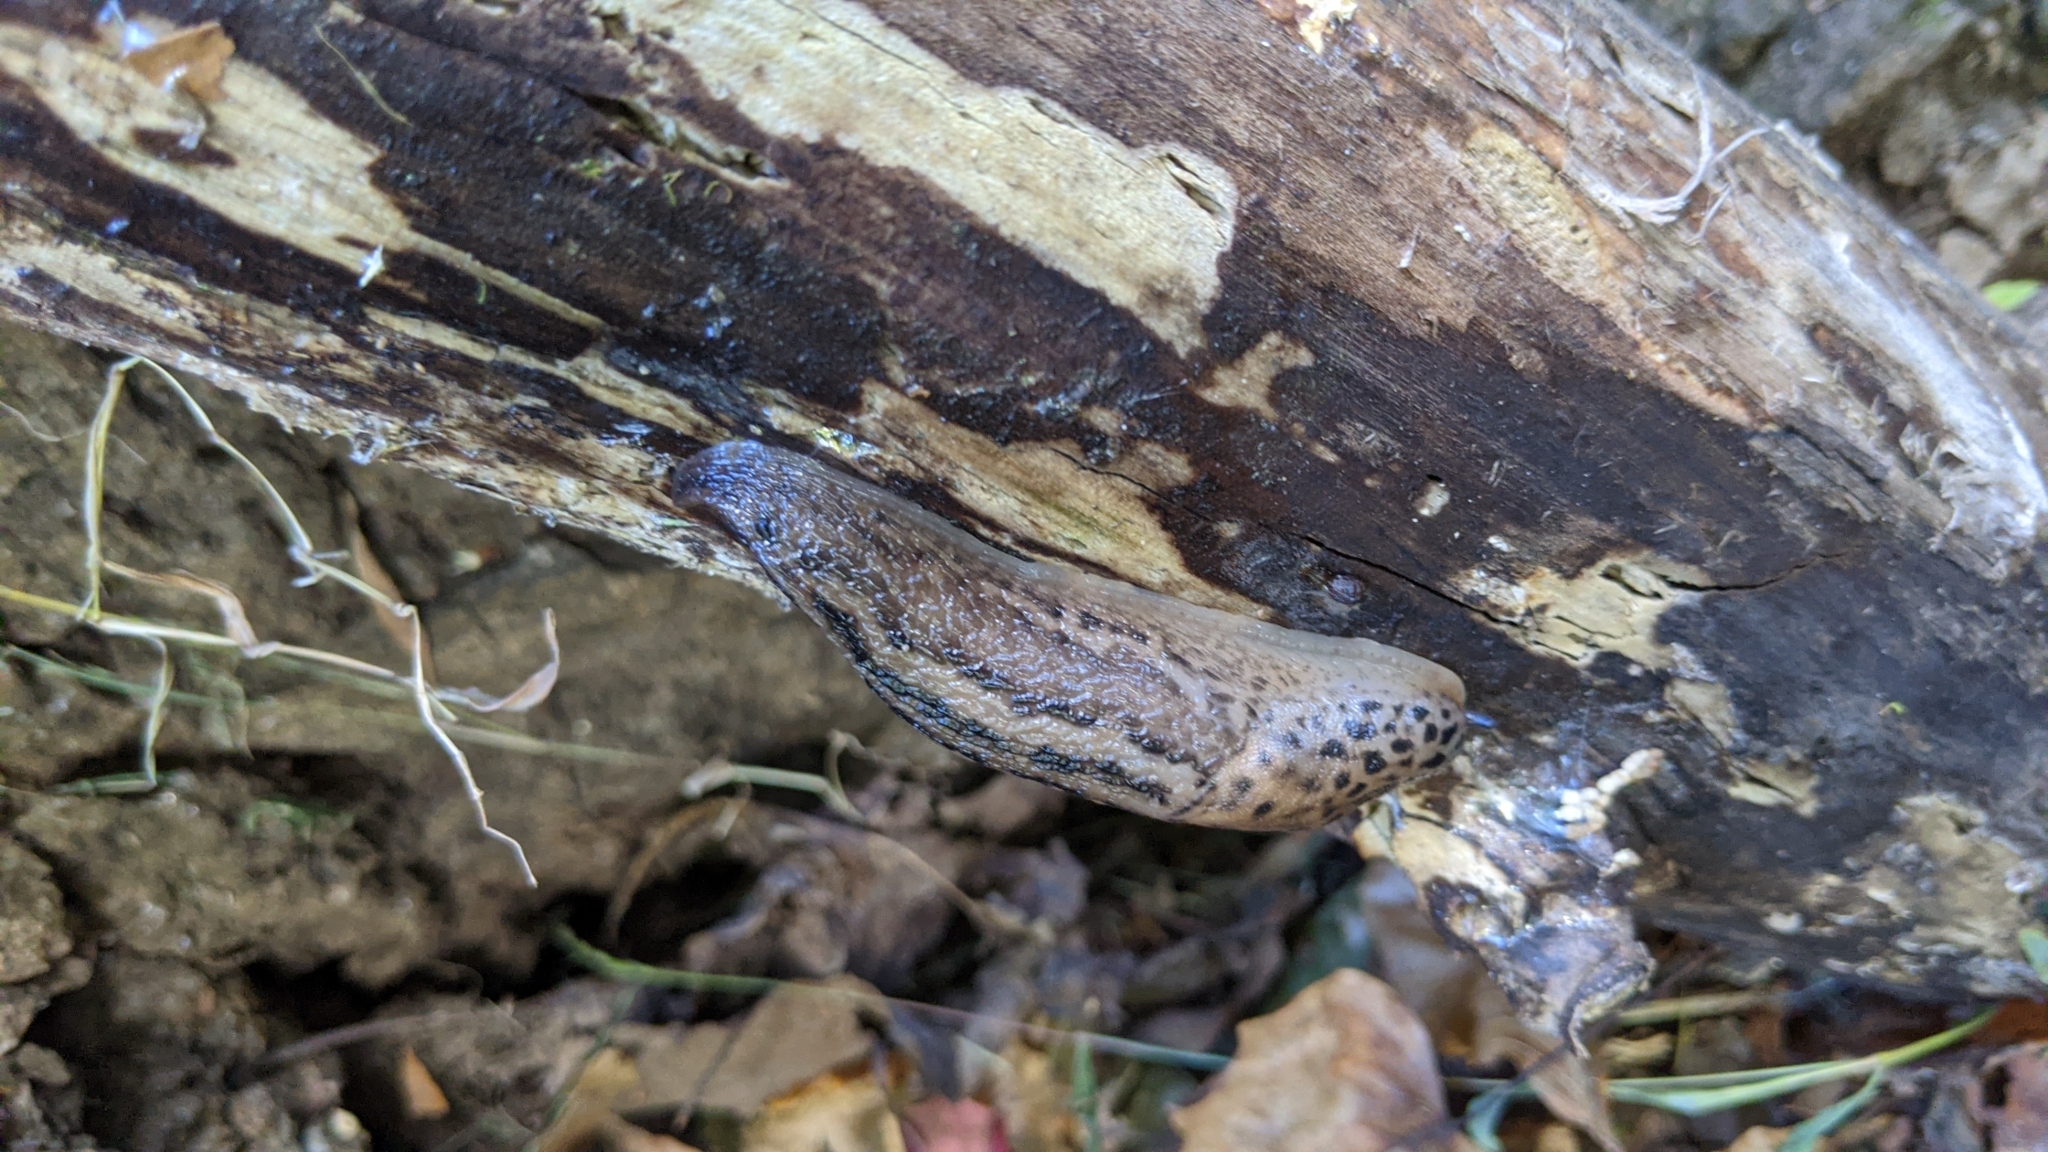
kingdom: Animalia
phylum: Mollusca
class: Gastropoda
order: Stylommatophora
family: Limacidae
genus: Limax
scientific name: Limax maximus
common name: Great grey slug
